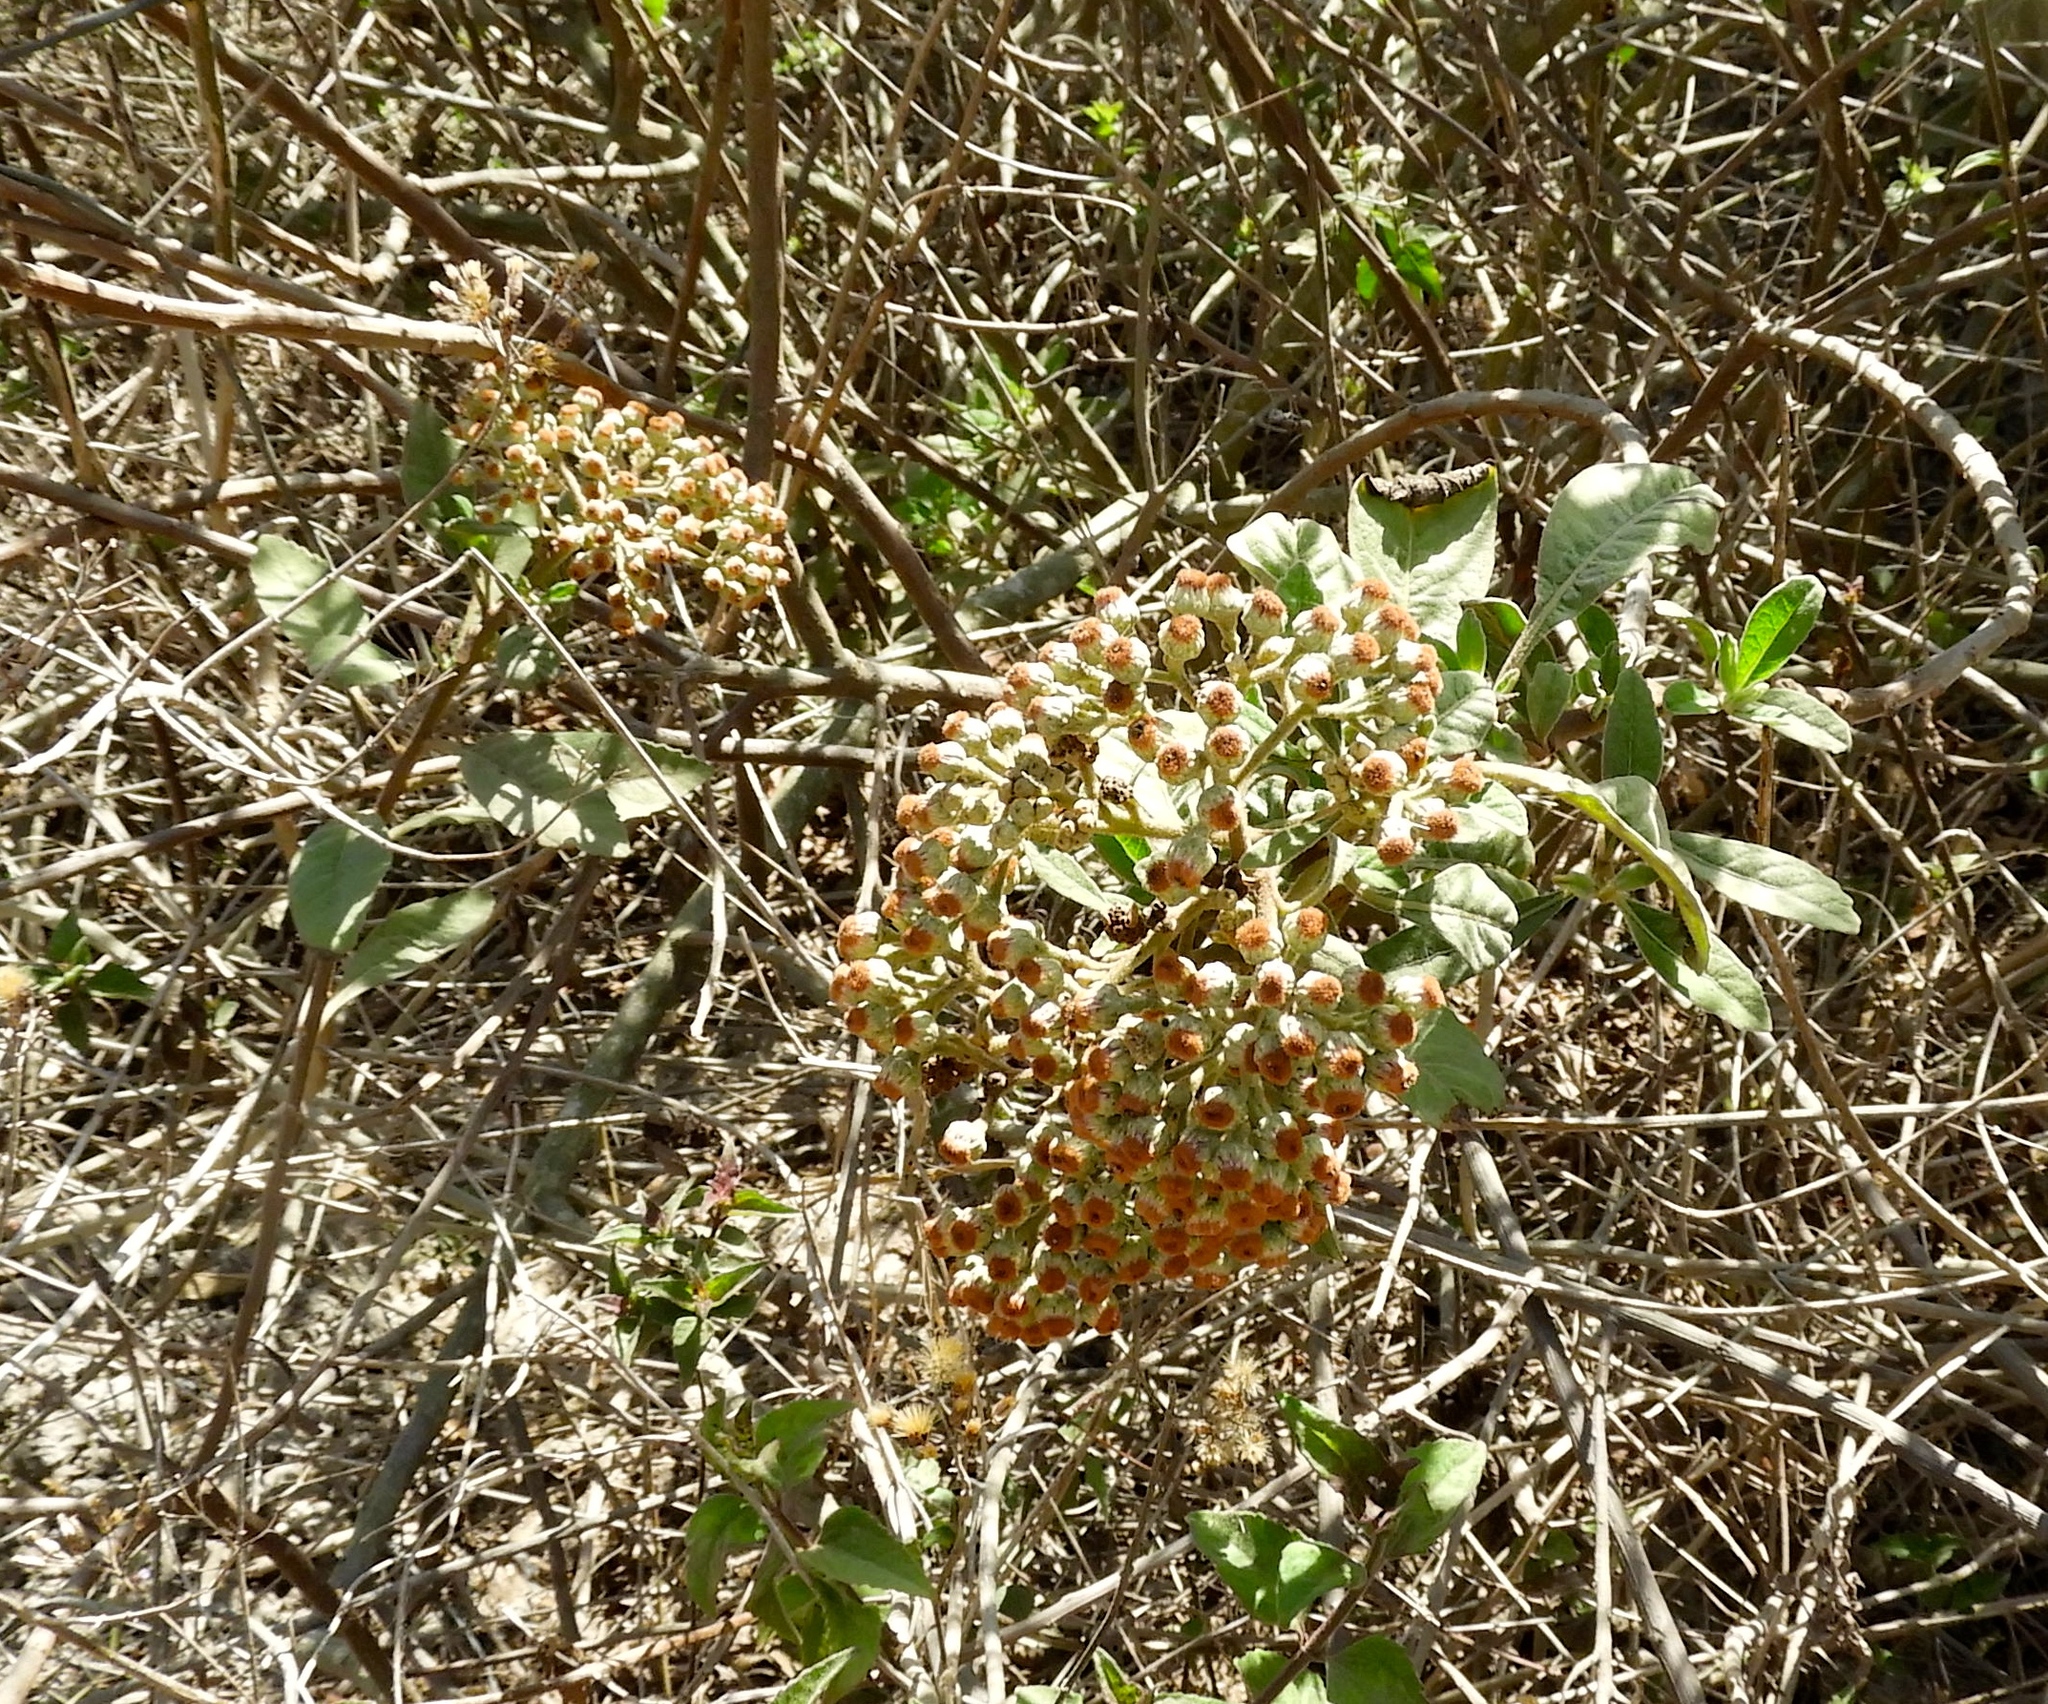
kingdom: Plantae
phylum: Tracheophyta
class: Magnoliopsida
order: Asterales
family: Asteraceae
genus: Pluchea
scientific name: Pluchea carolinensis
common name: Marsh fleabane
